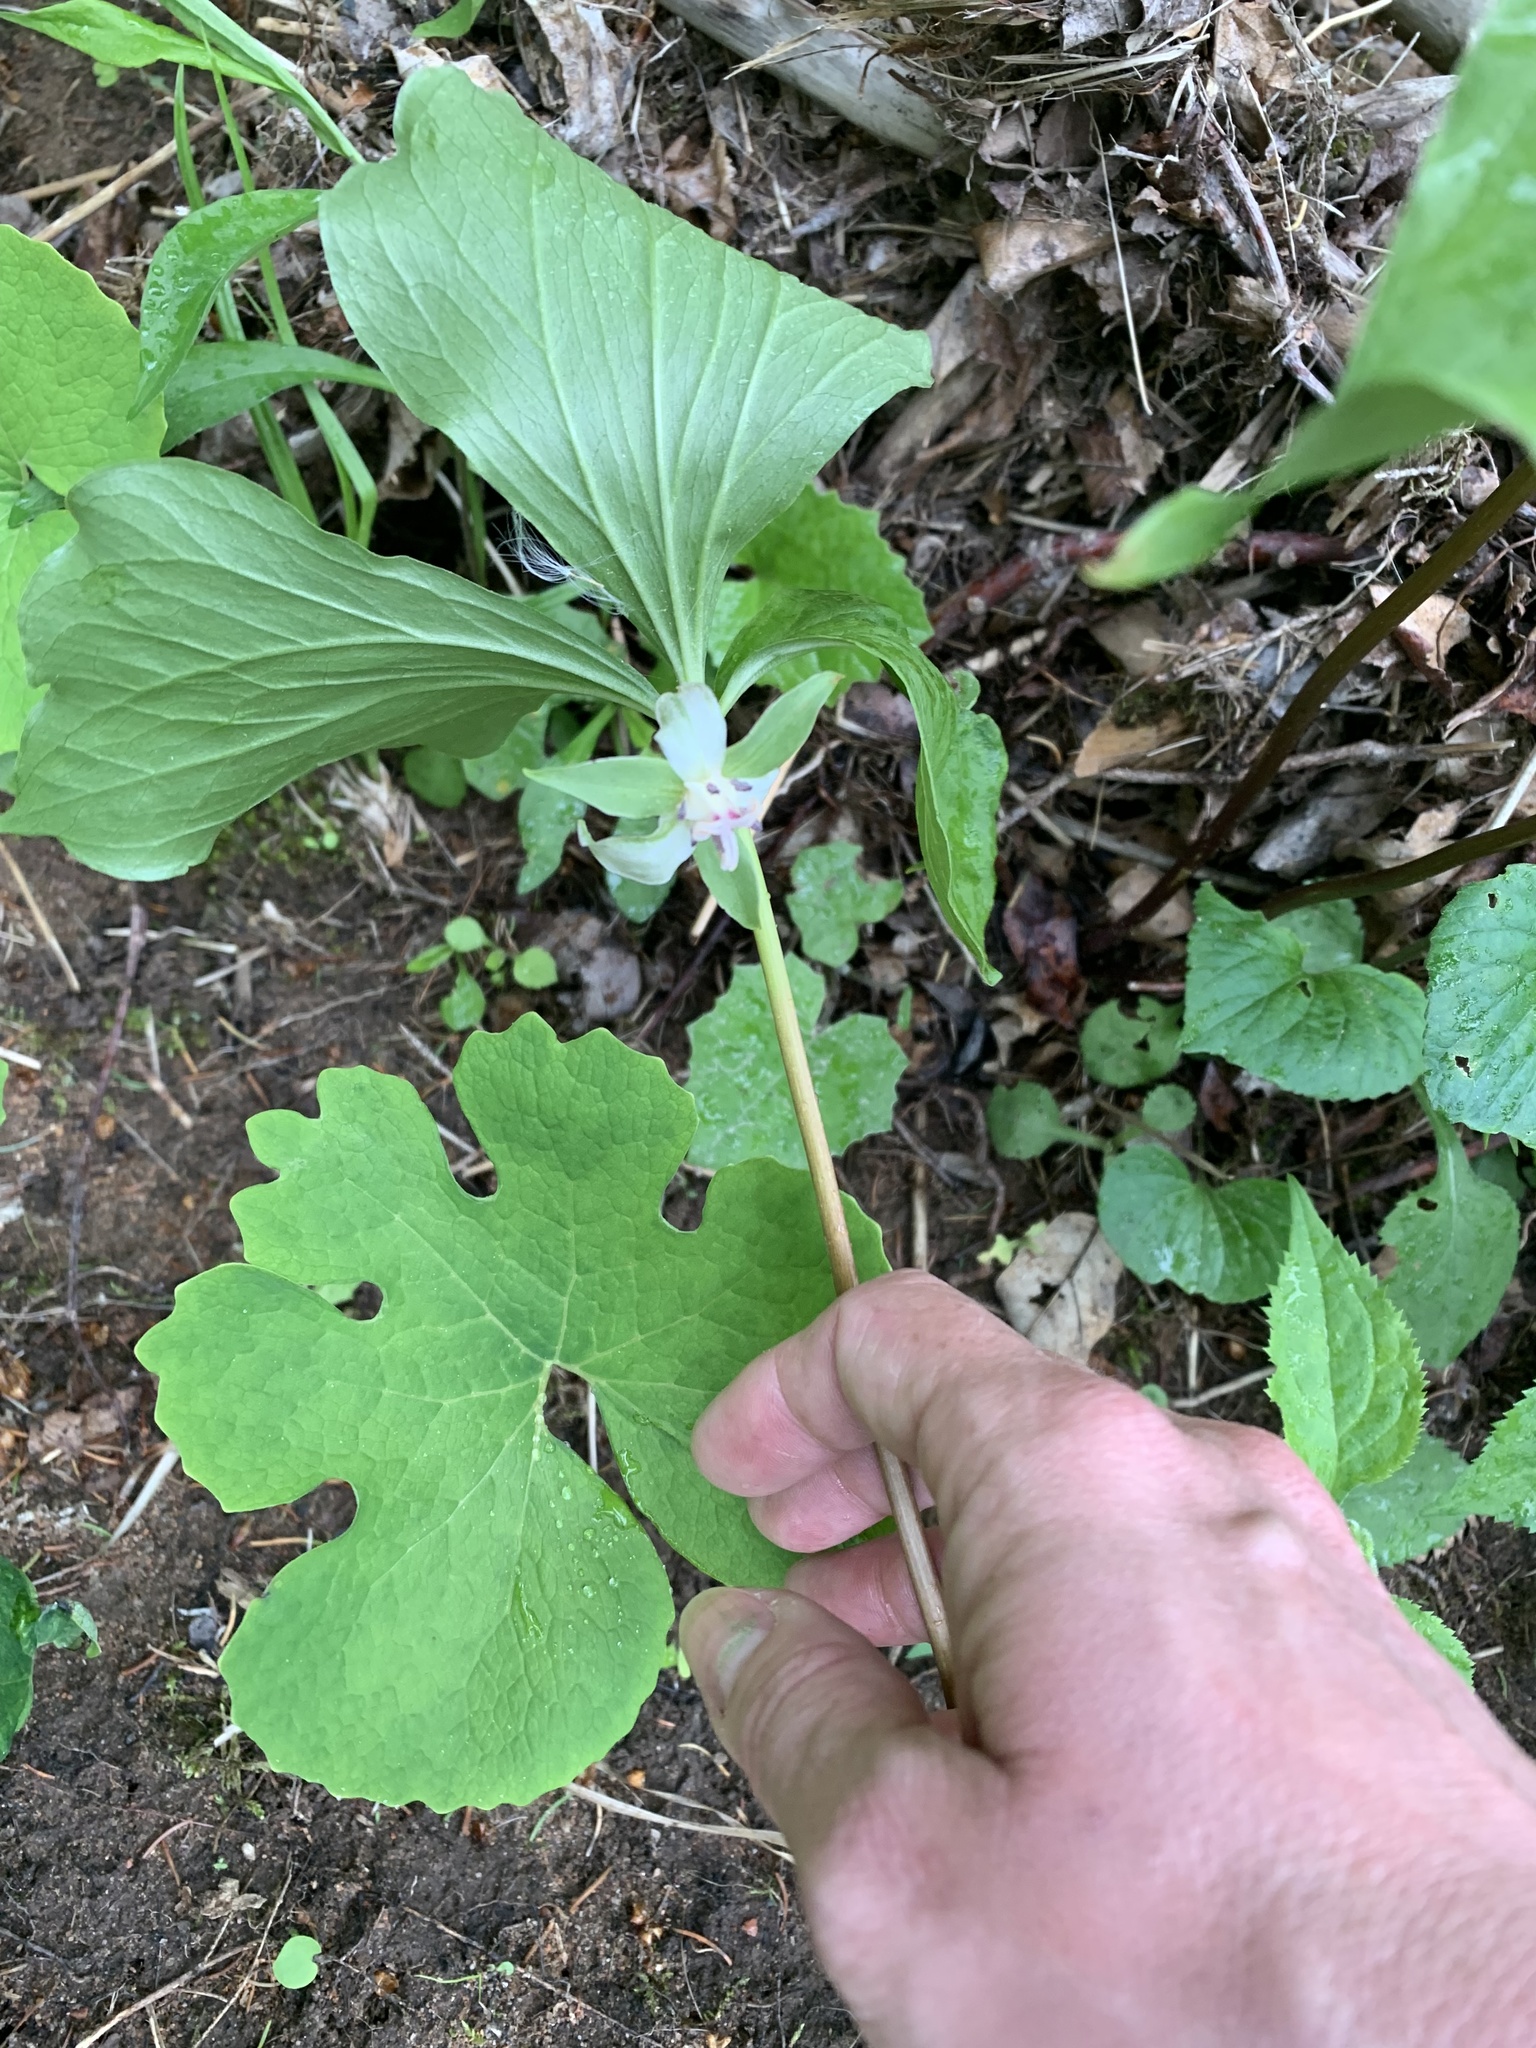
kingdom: Plantae
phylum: Tracheophyta
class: Liliopsida
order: Liliales
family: Melanthiaceae
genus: Trillium
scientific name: Trillium cernuum
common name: Nodding trillium
